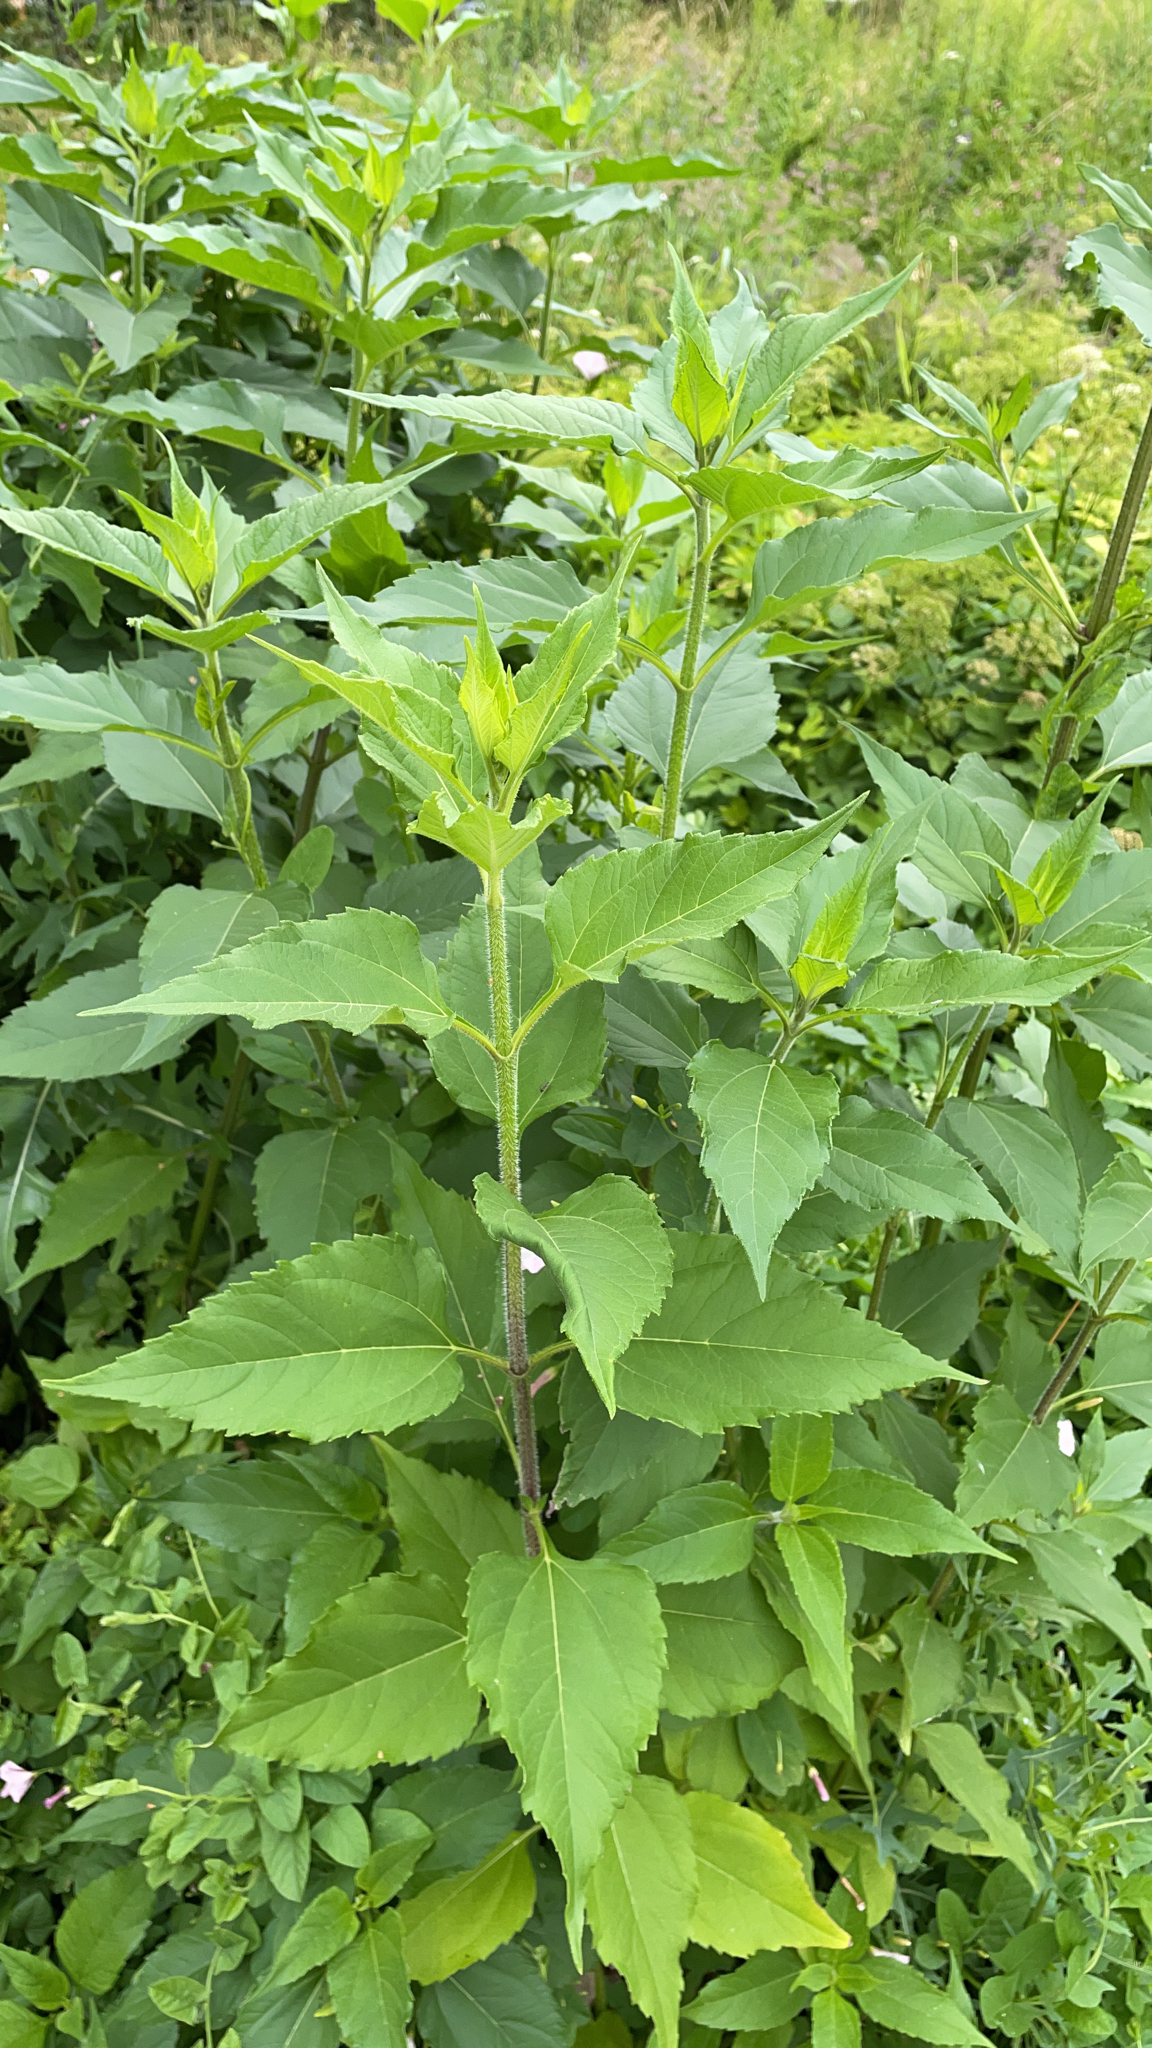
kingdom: Plantae
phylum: Tracheophyta
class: Magnoliopsida
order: Asterales
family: Asteraceae
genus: Helianthus
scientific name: Helianthus tuberosus
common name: Jerusalem artichoke
